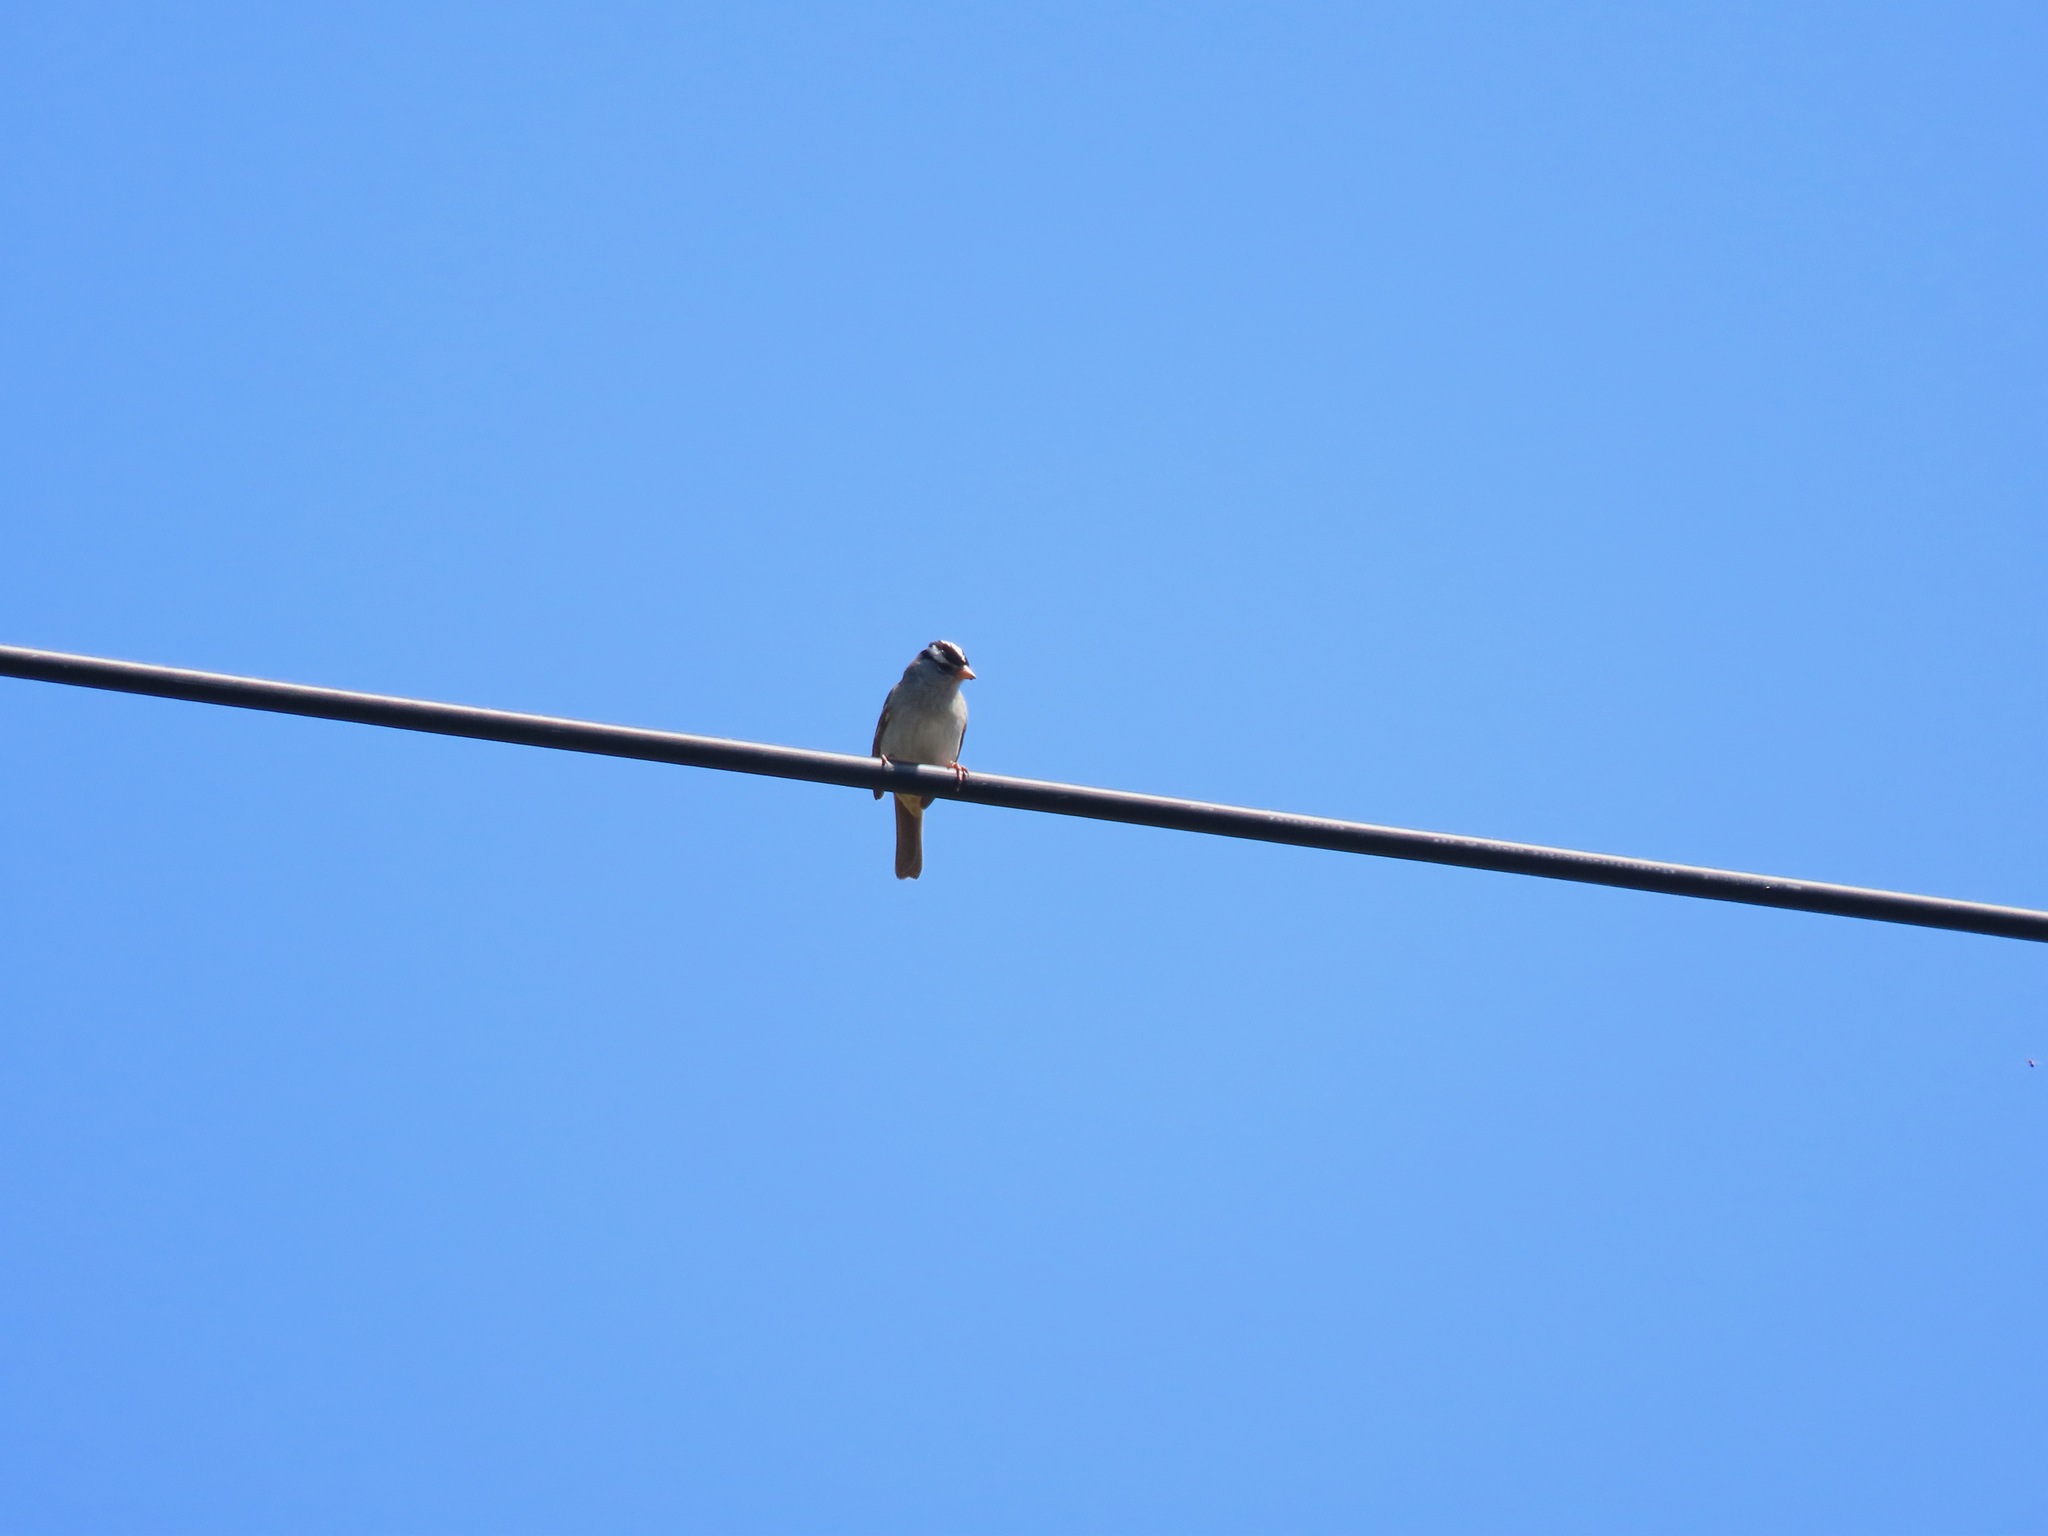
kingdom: Animalia
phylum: Chordata
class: Aves
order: Passeriformes
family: Passerellidae
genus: Zonotrichia
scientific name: Zonotrichia leucophrys
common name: White-crowned sparrow
